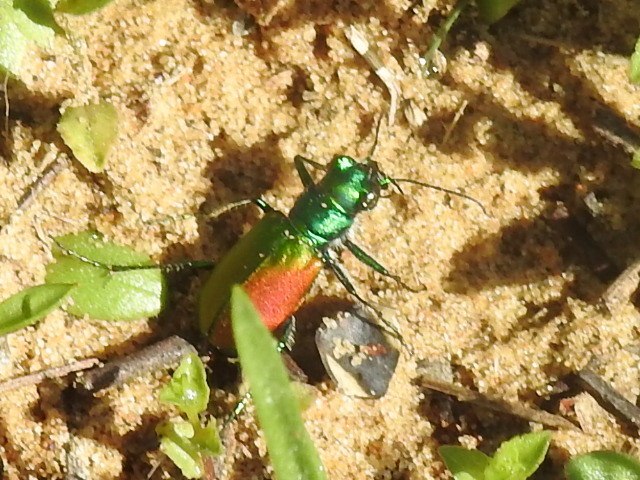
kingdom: Animalia
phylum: Arthropoda
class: Insecta
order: Coleoptera
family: Carabidae
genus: Cicindela
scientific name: Cicindela scutellaris
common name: Festive tiger beetle
